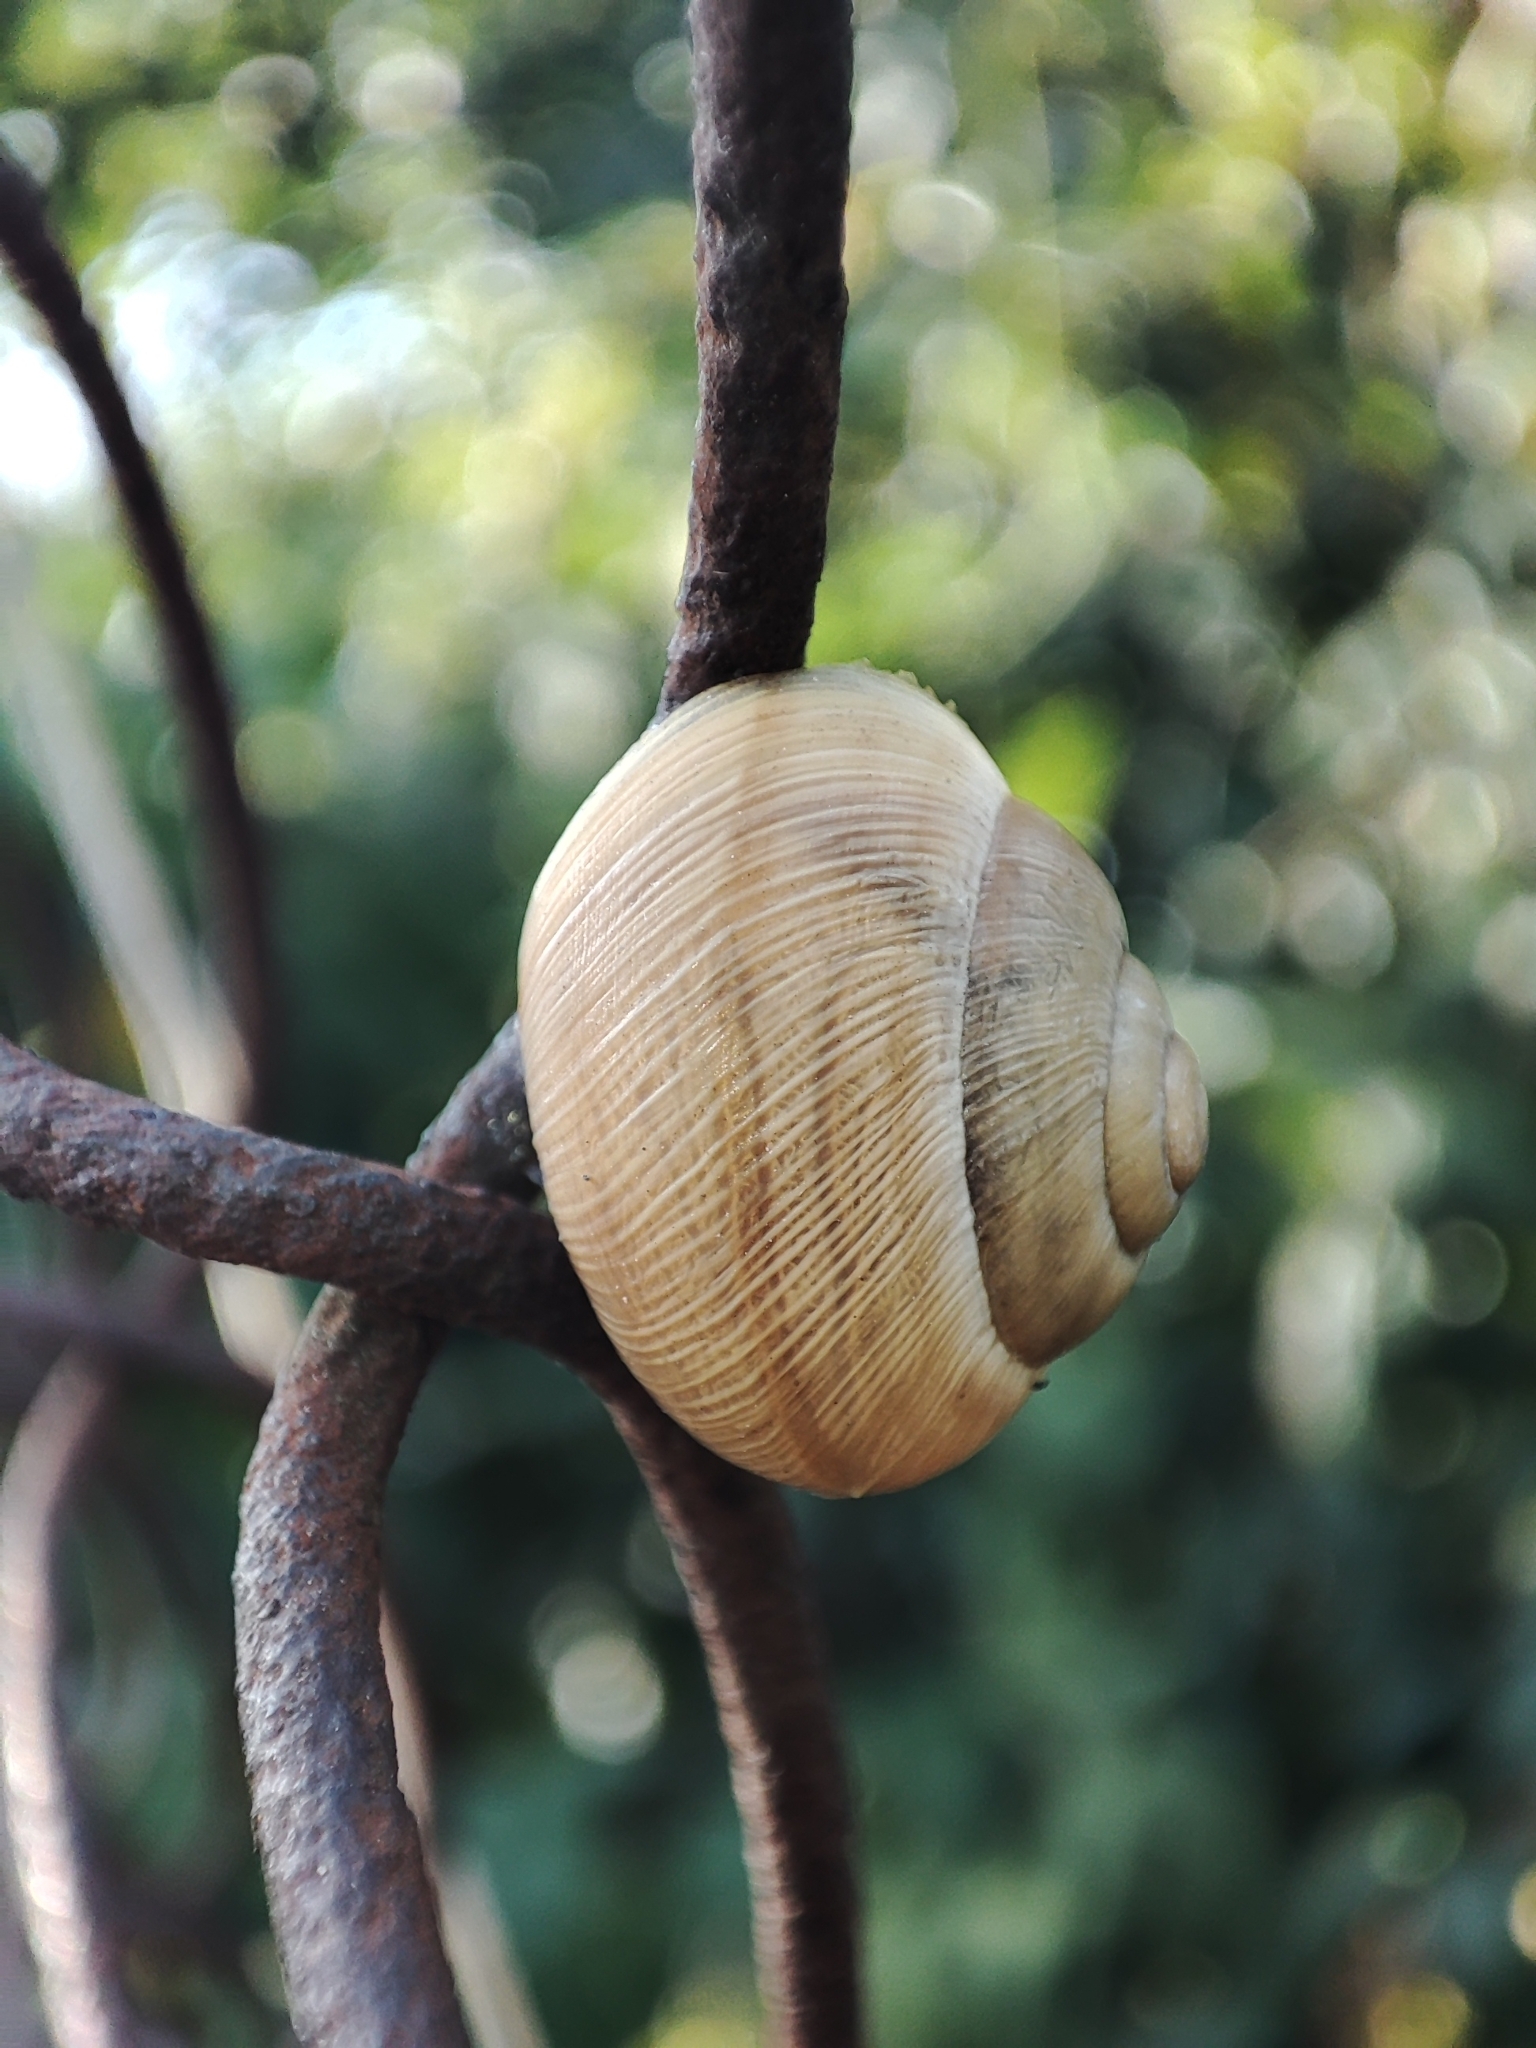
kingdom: Animalia
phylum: Mollusca
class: Gastropoda
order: Stylommatophora
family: Helicidae
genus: Caucasotachea
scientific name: Caucasotachea vindobonensis
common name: European helicid land snail
